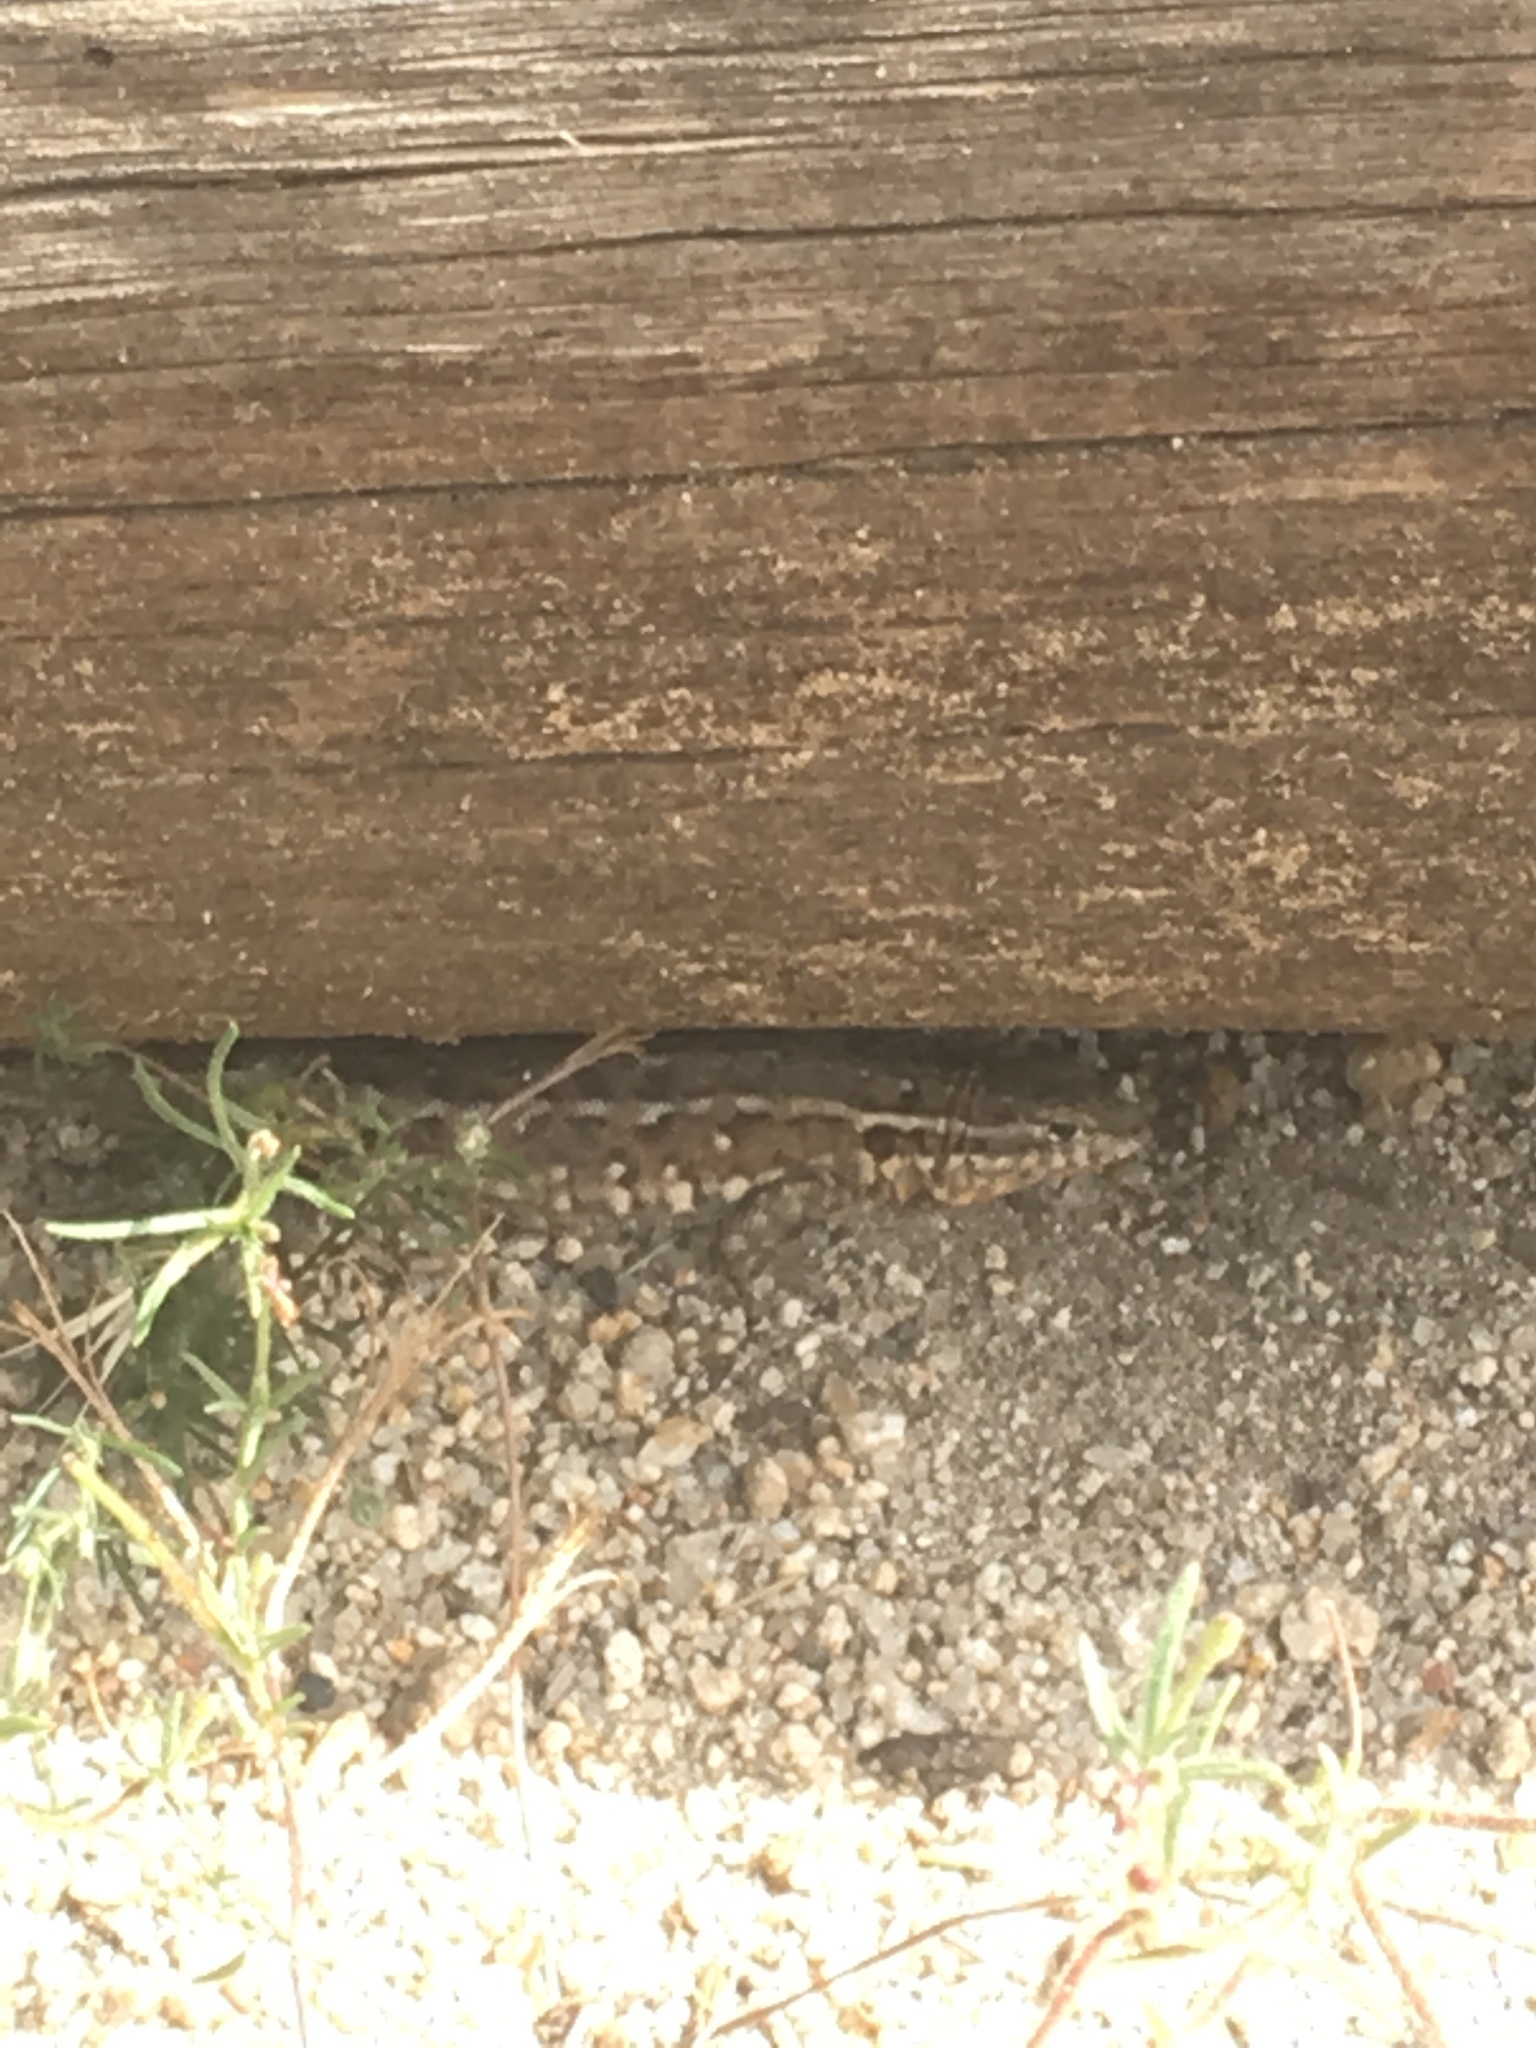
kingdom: Animalia
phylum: Chordata
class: Squamata
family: Phrynosomatidae
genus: Uta
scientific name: Uta stansburiana
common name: Side-blotched lizard
